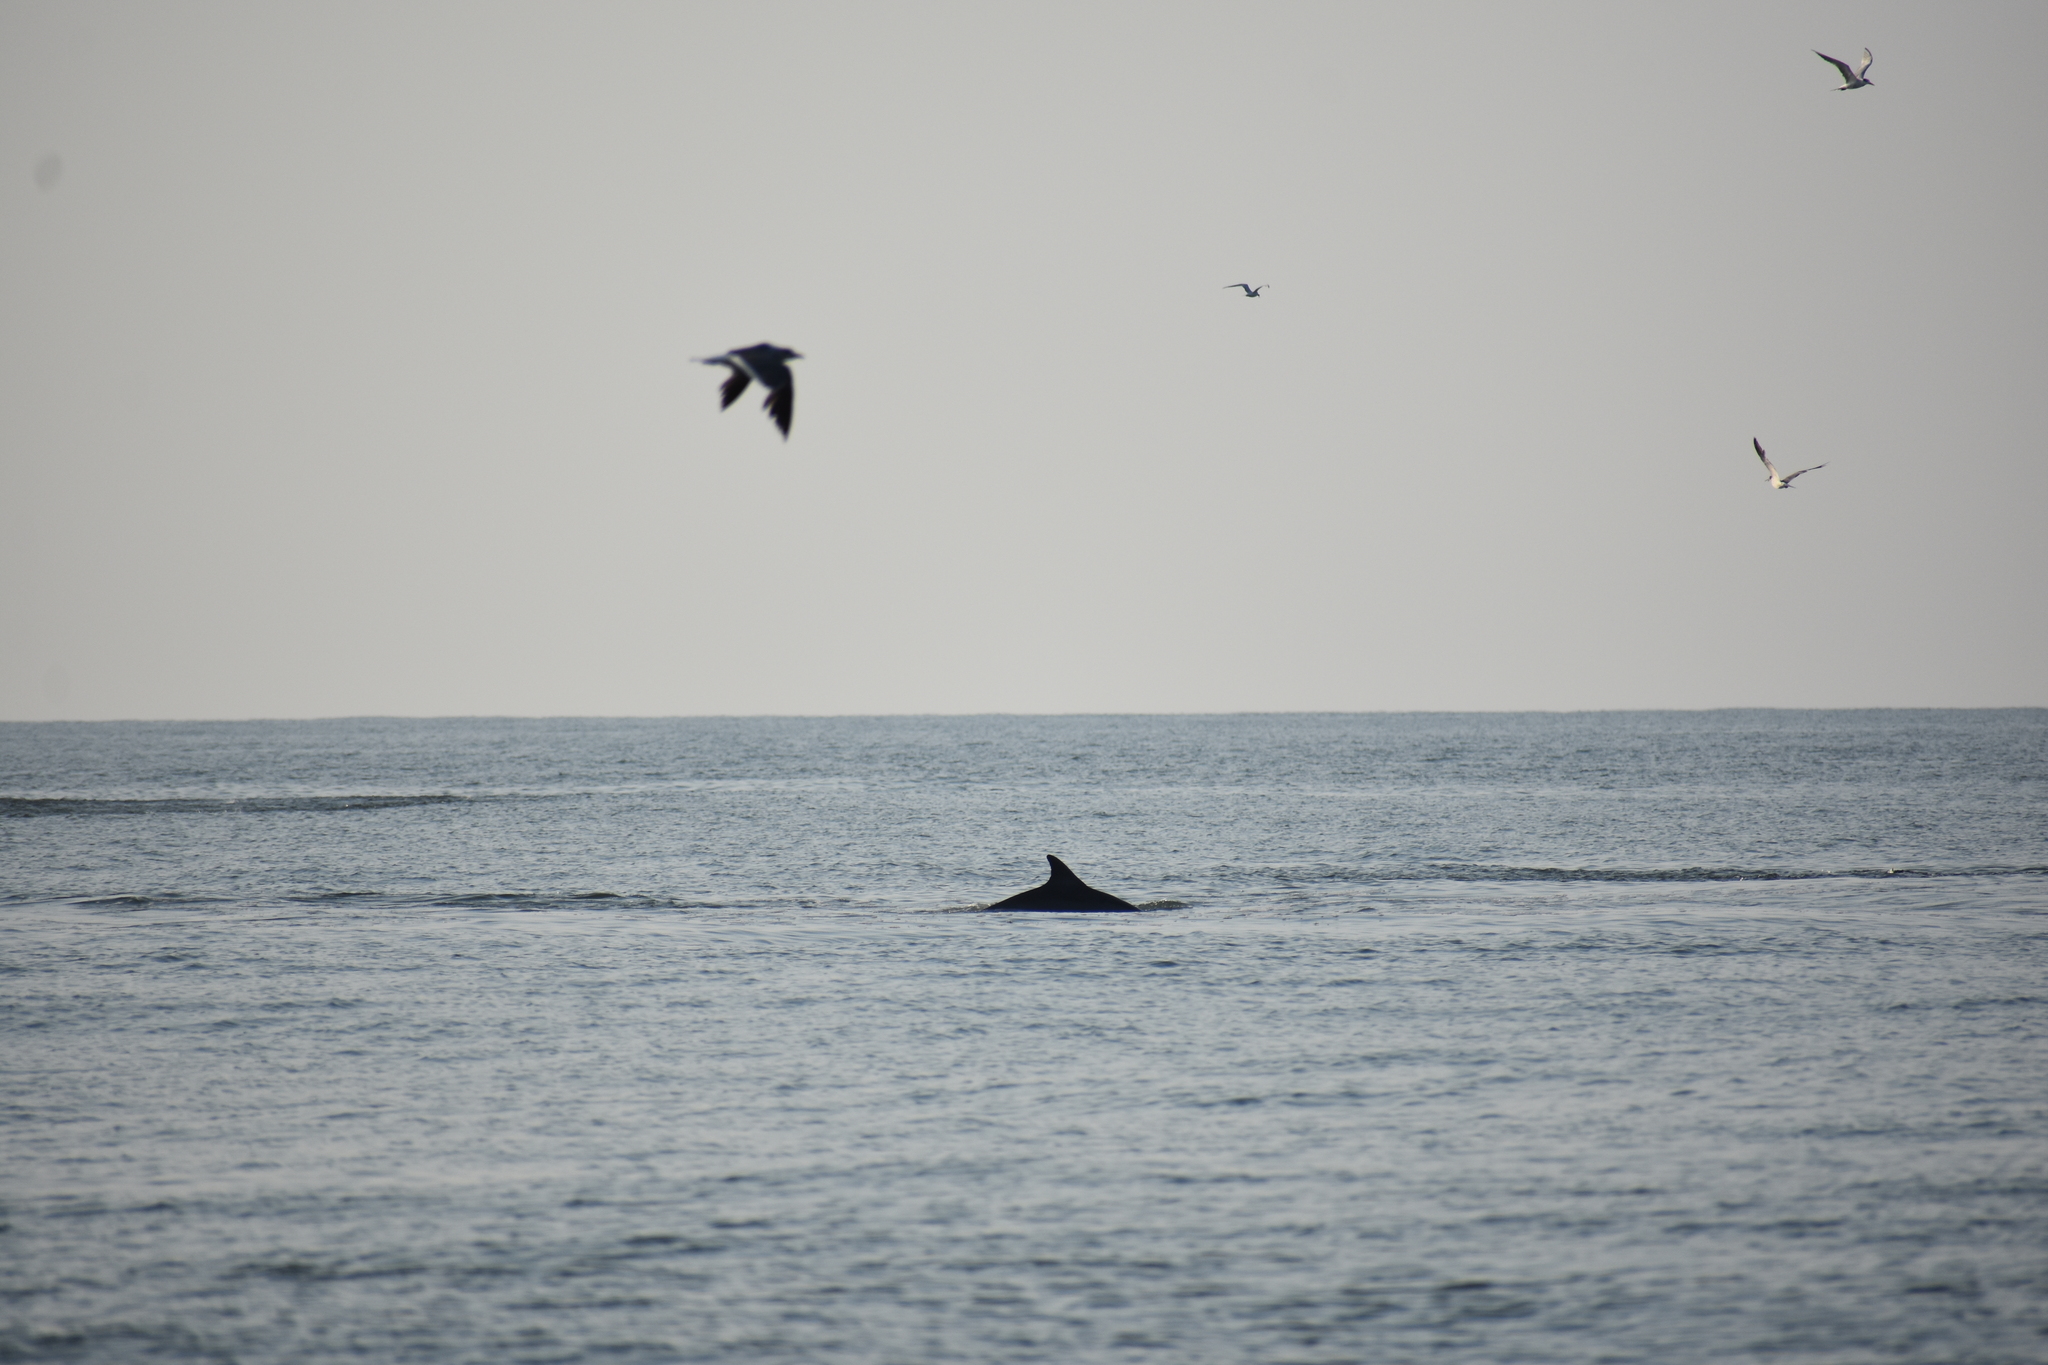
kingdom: Animalia
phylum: Chordata
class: Mammalia
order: Cetacea
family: Delphinidae
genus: Tursiops
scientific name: Tursiops truncatus
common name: Bottlenose dolphin
